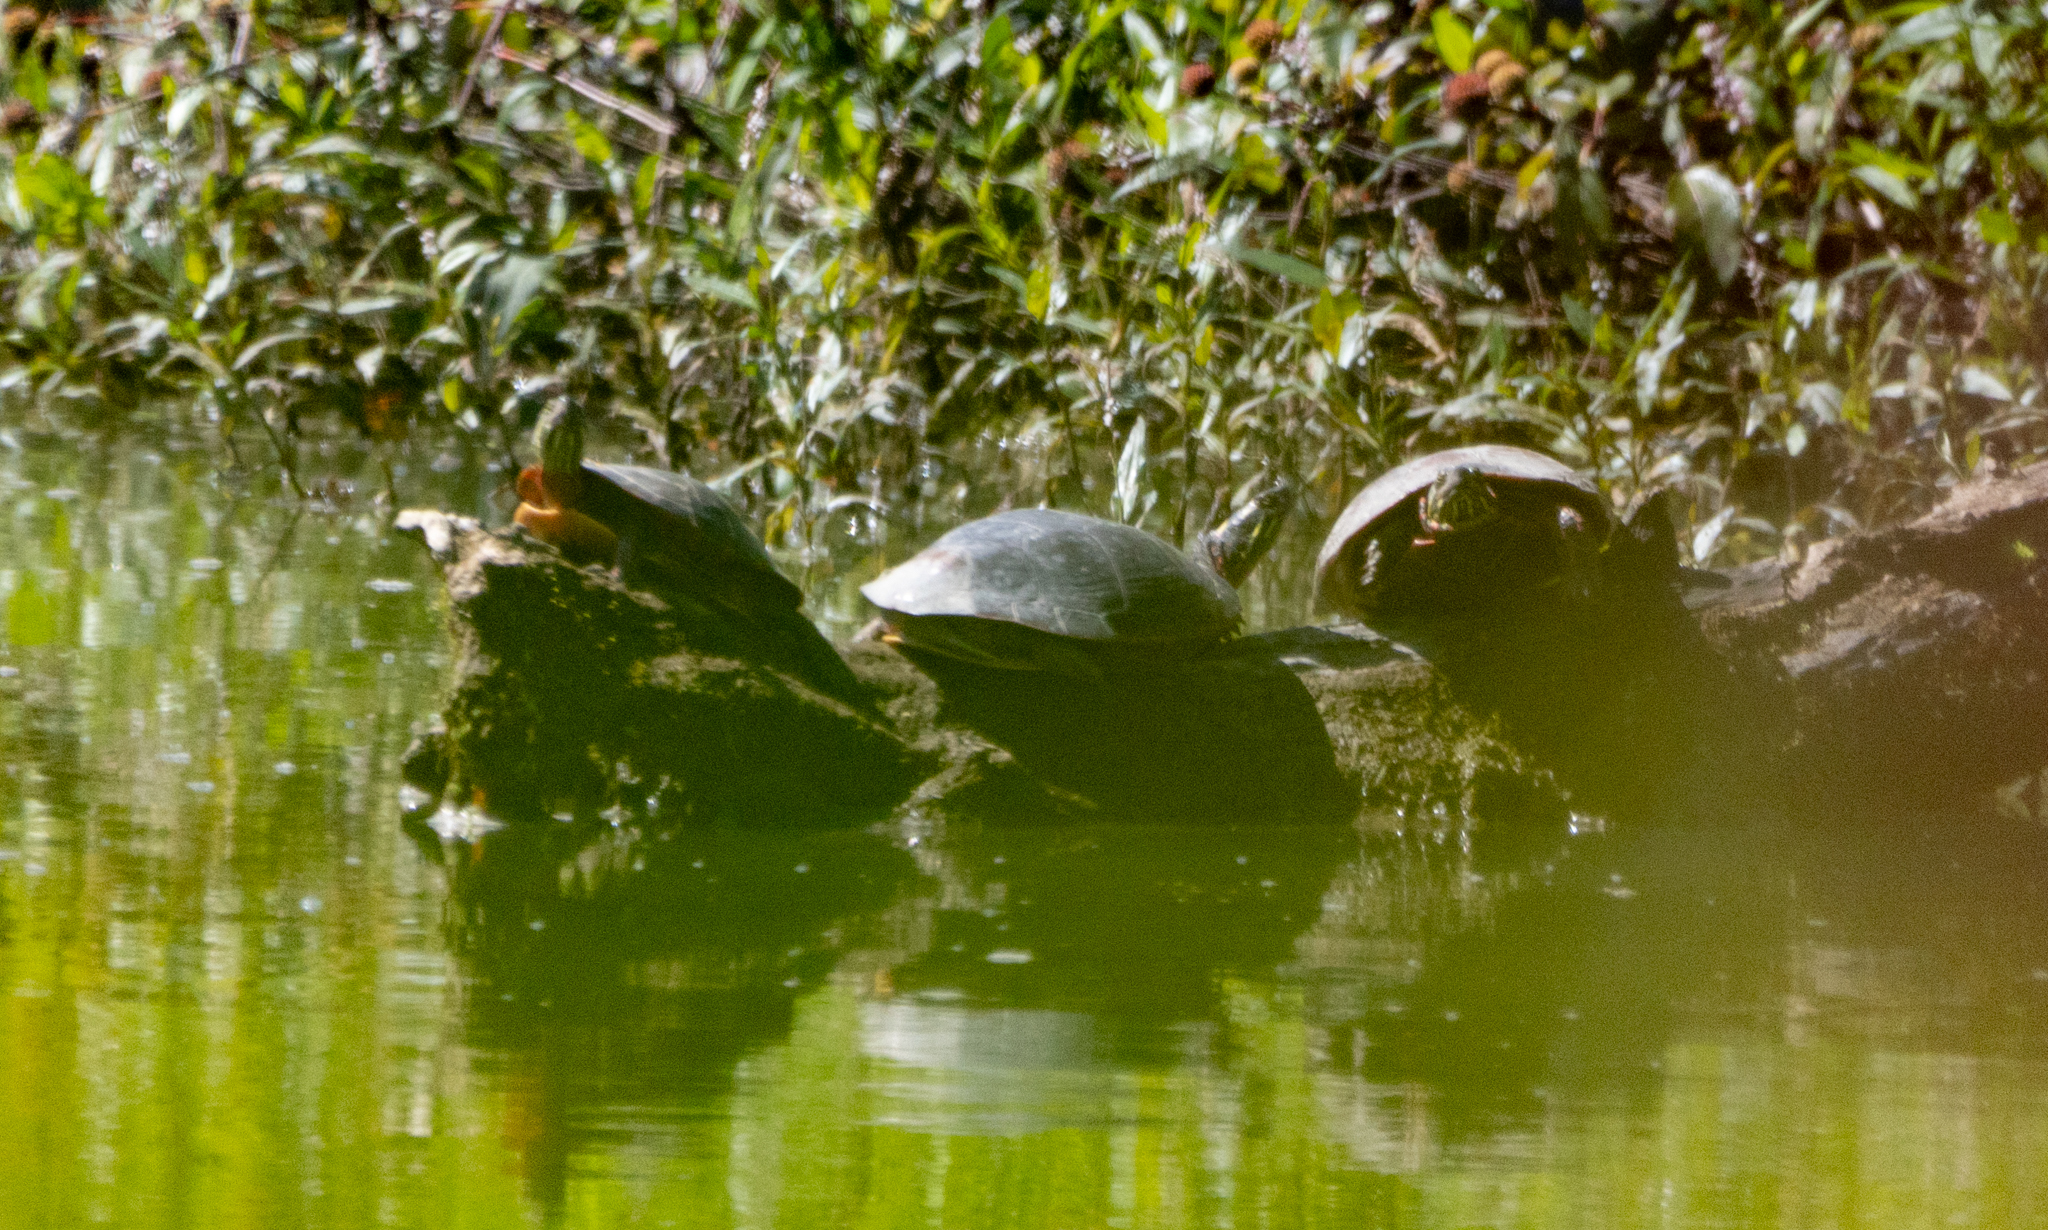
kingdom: Animalia
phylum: Chordata
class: Testudines
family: Emydidae
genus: Chrysemys
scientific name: Chrysemys picta
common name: Painted turtle
